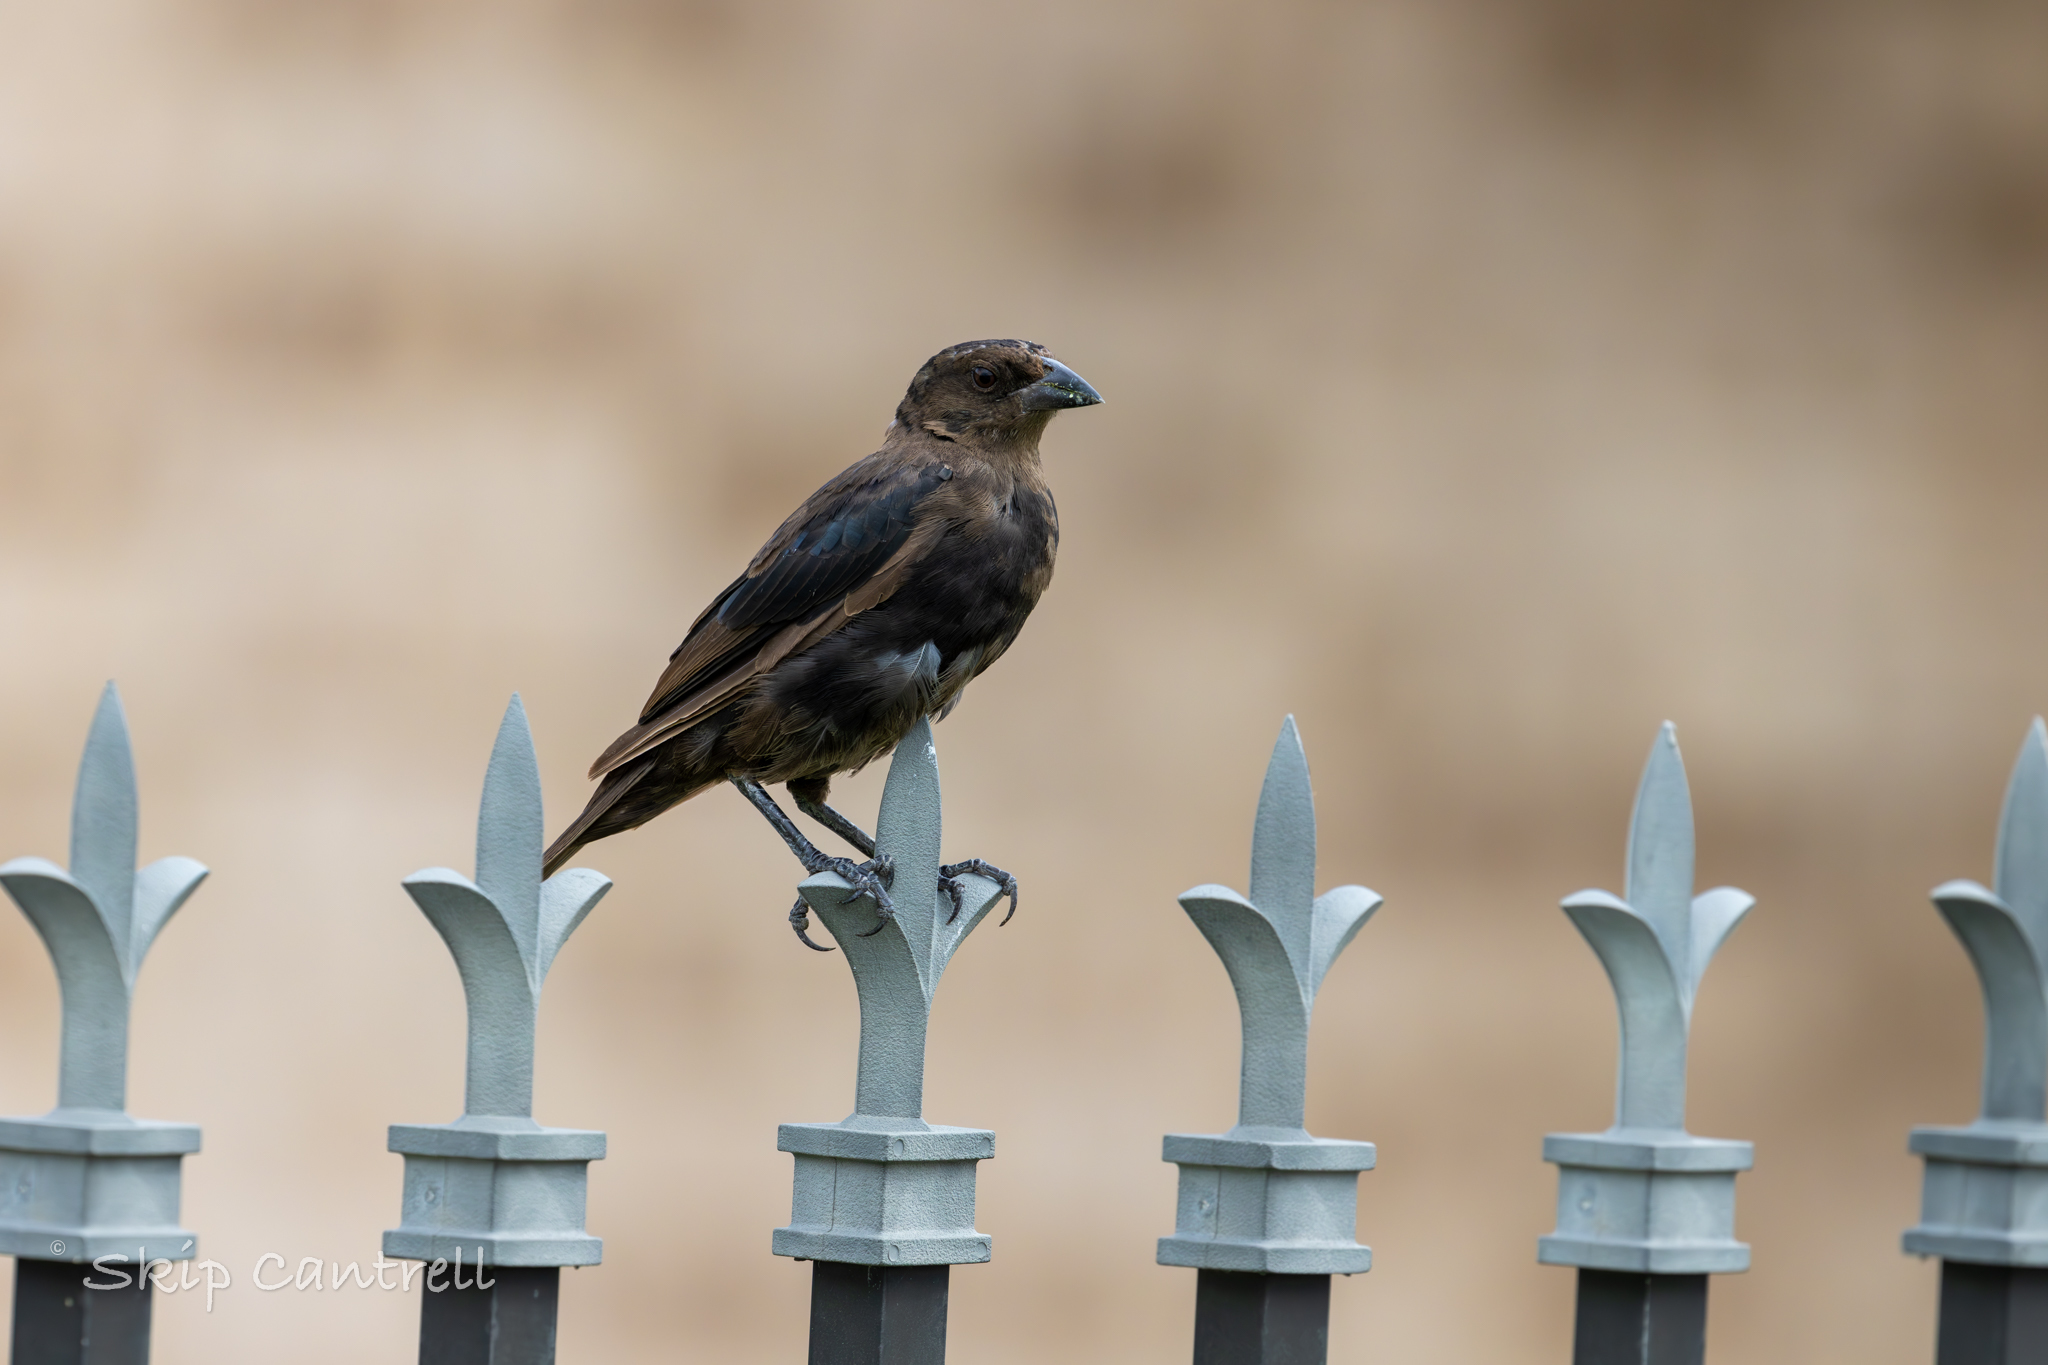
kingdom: Animalia
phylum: Chordata
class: Aves
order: Passeriformes
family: Icteridae
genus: Molothrus
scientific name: Molothrus ater
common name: Brown-headed cowbird
